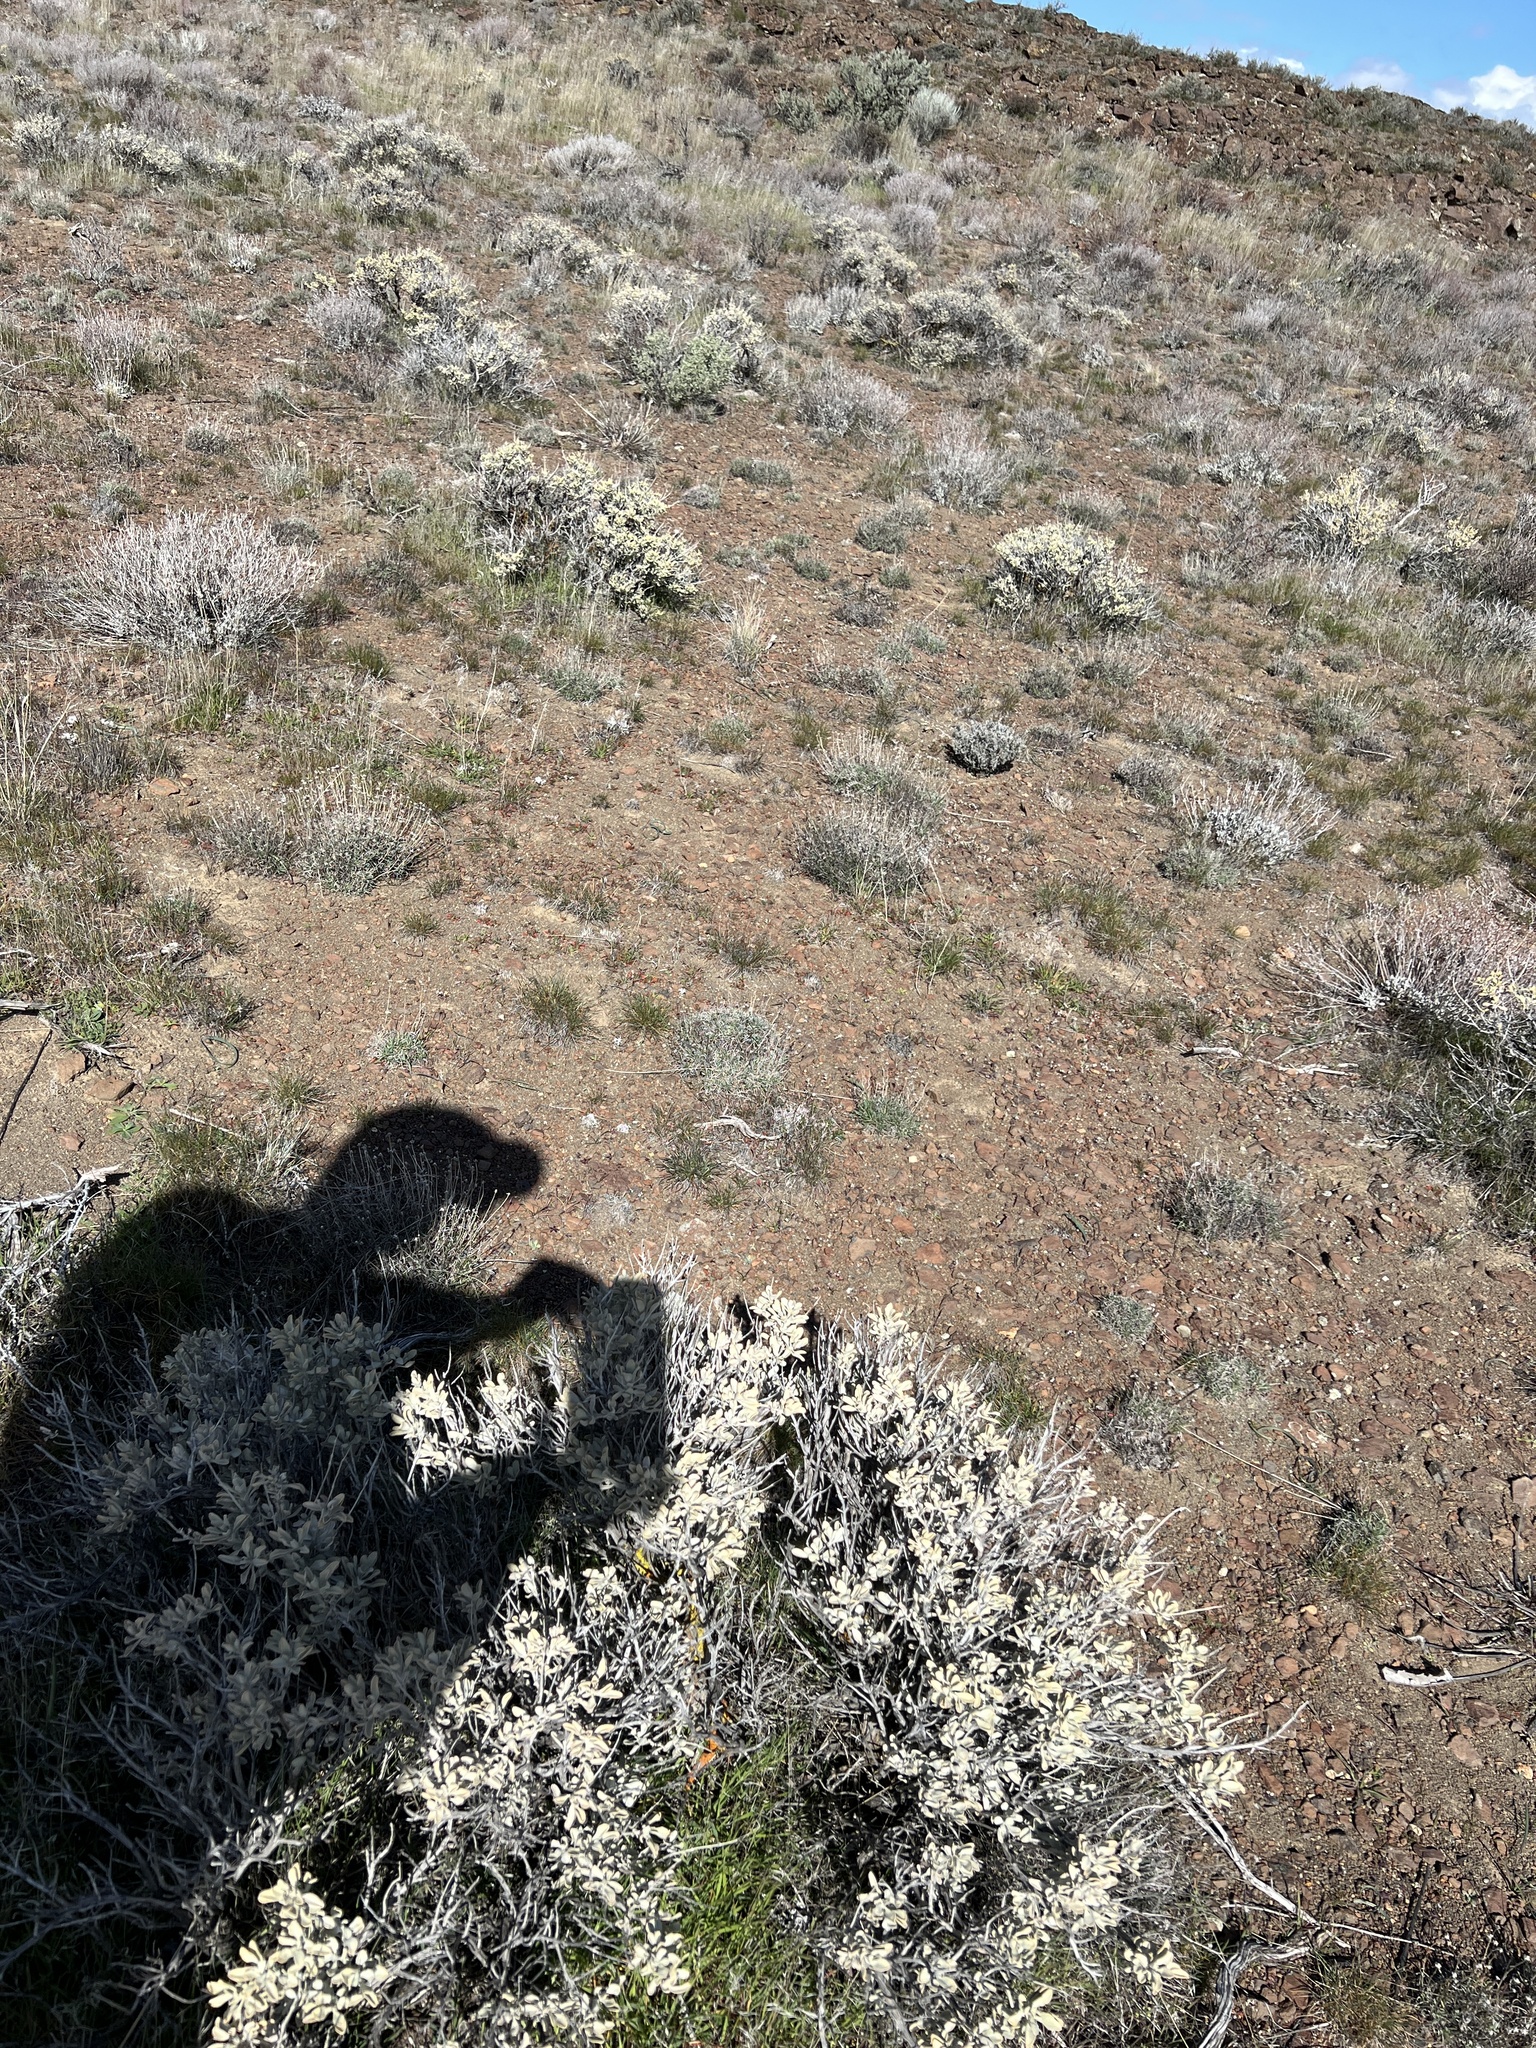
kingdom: Plantae
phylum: Tracheophyta
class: Magnoliopsida
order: Lamiales
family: Lamiaceae
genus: Salvia
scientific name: Salvia dorrii
